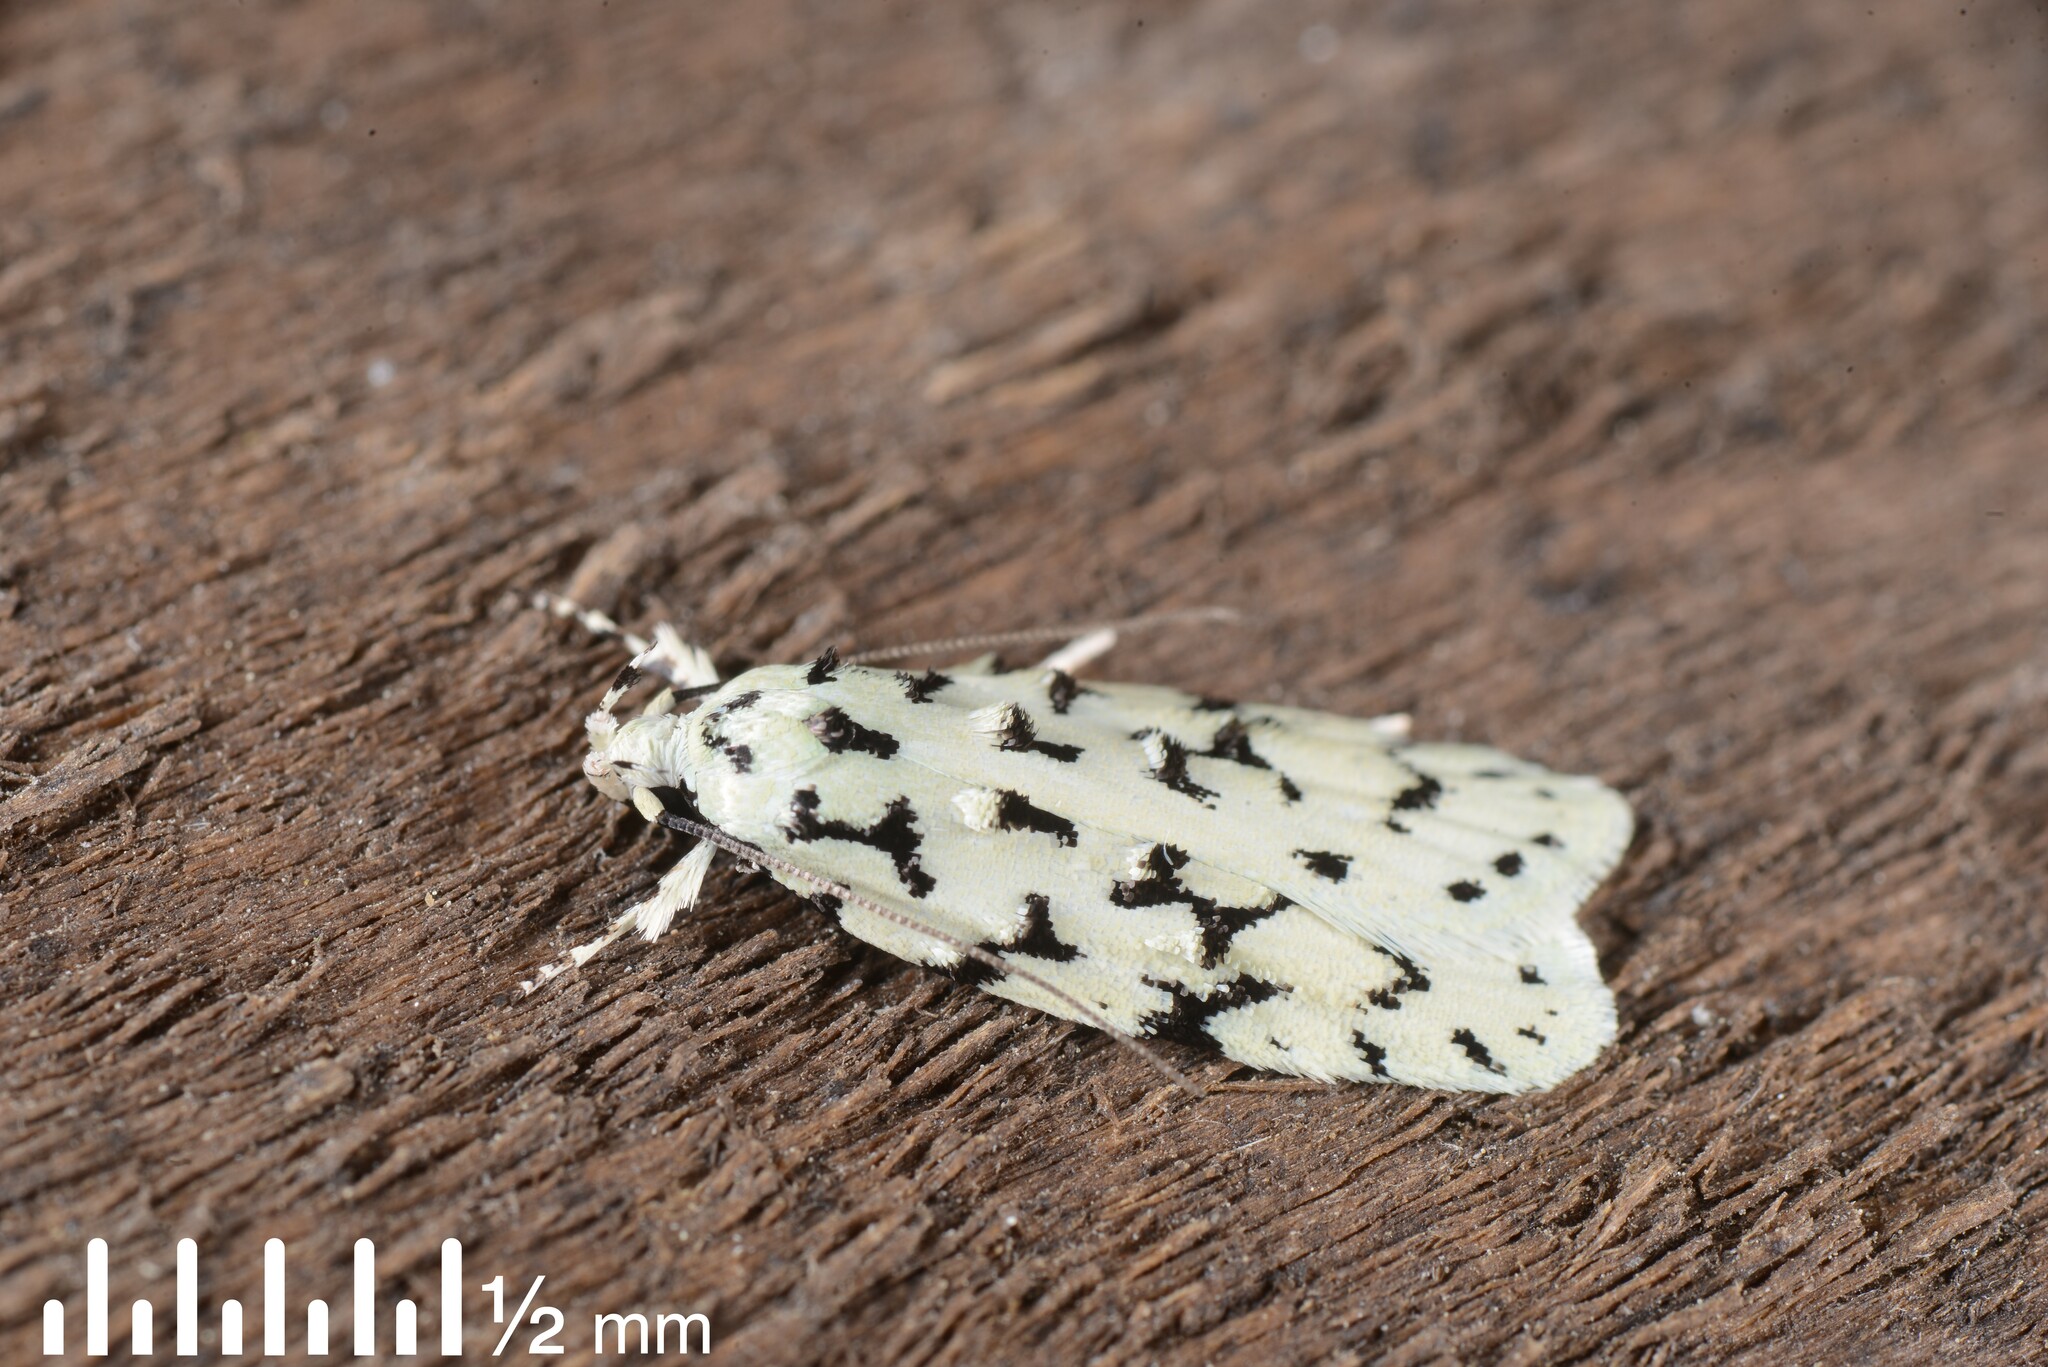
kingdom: Animalia
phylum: Arthropoda
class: Insecta
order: Lepidoptera
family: Oecophoridae
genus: Izatha
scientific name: Izatha huttoni
